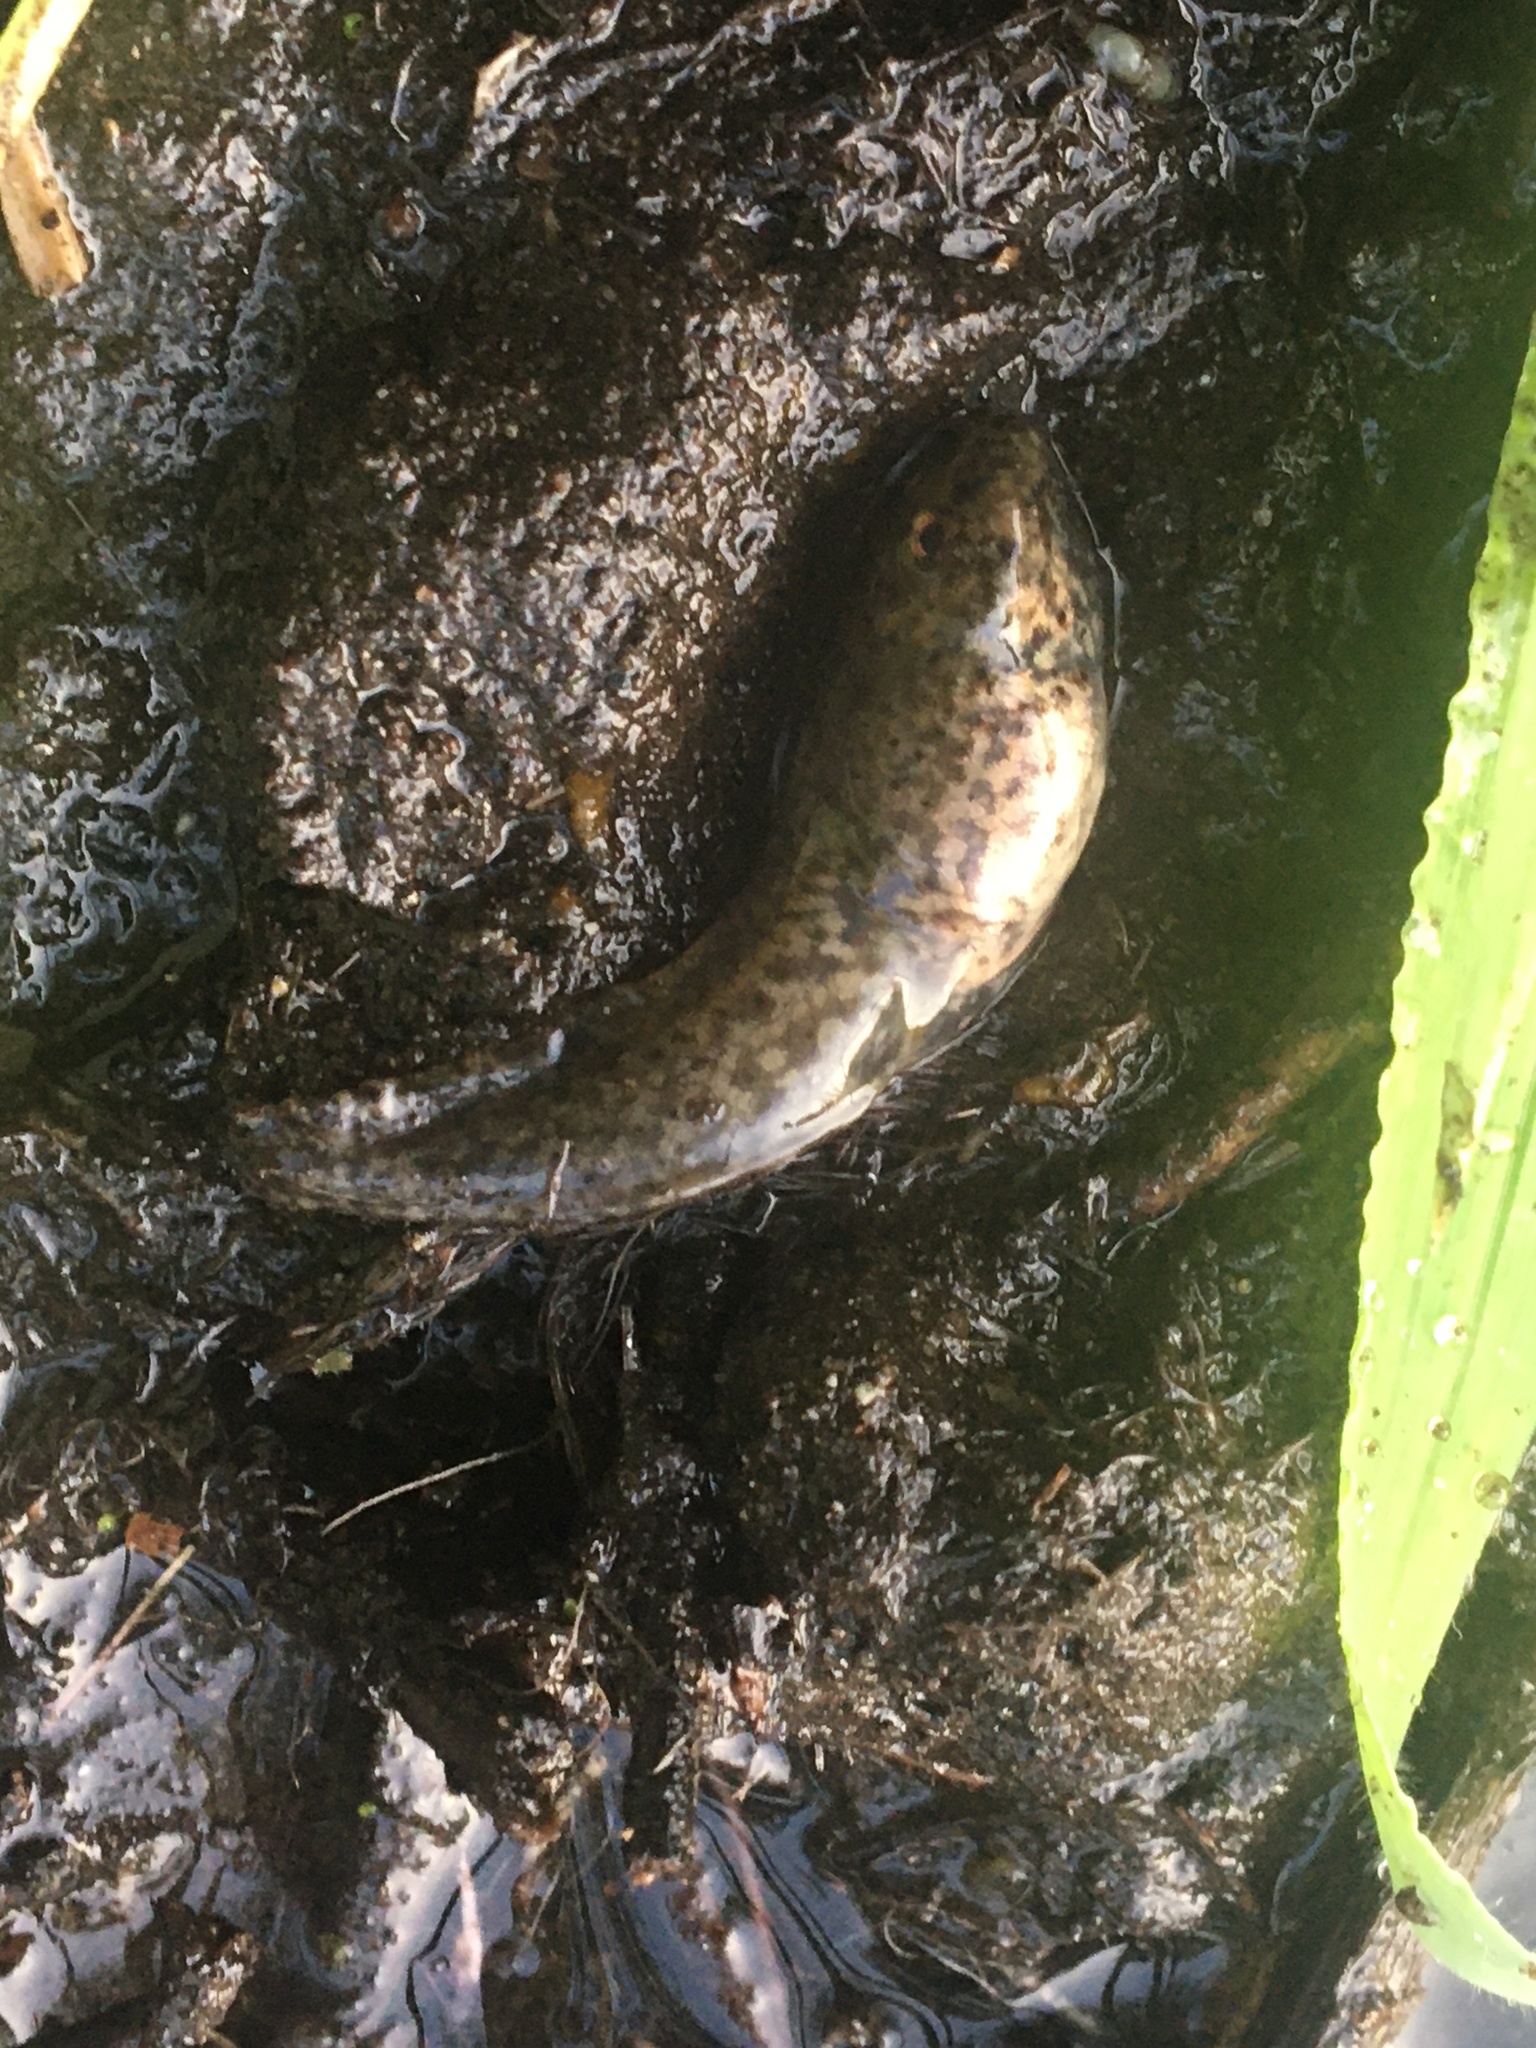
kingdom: Animalia
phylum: Chordata
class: Amphibia
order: Anura
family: Ranidae
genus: Lithobates
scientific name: Lithobates catesbeianus
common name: American bullfrog
